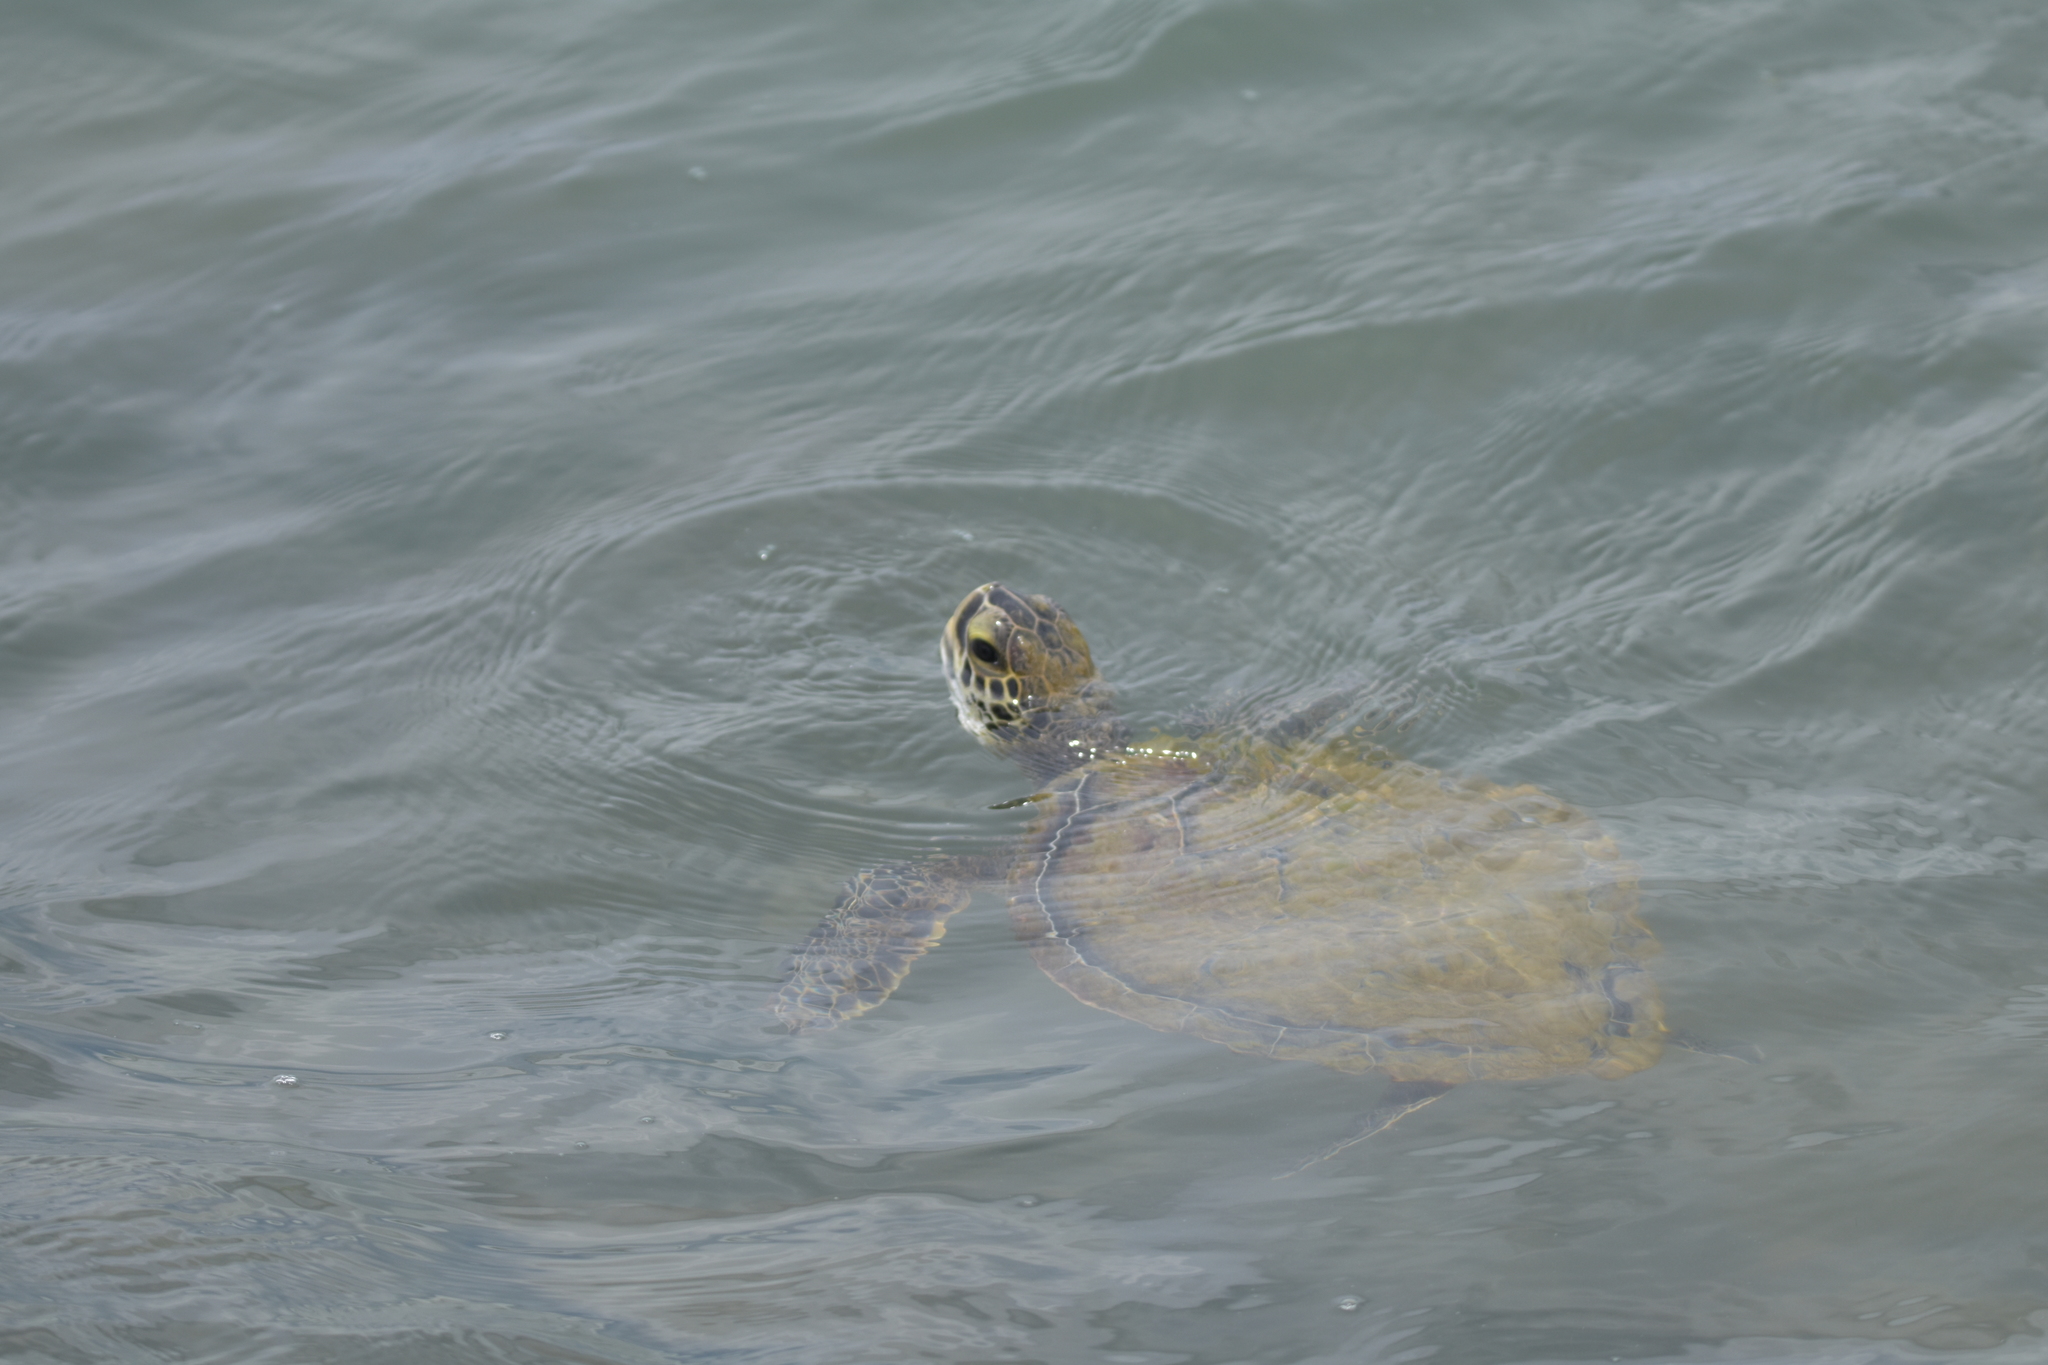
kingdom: Animalia
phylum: Chordata
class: Testudines
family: Cheloniidae
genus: Chelonia
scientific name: Chelonia mydas
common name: Green turtle
